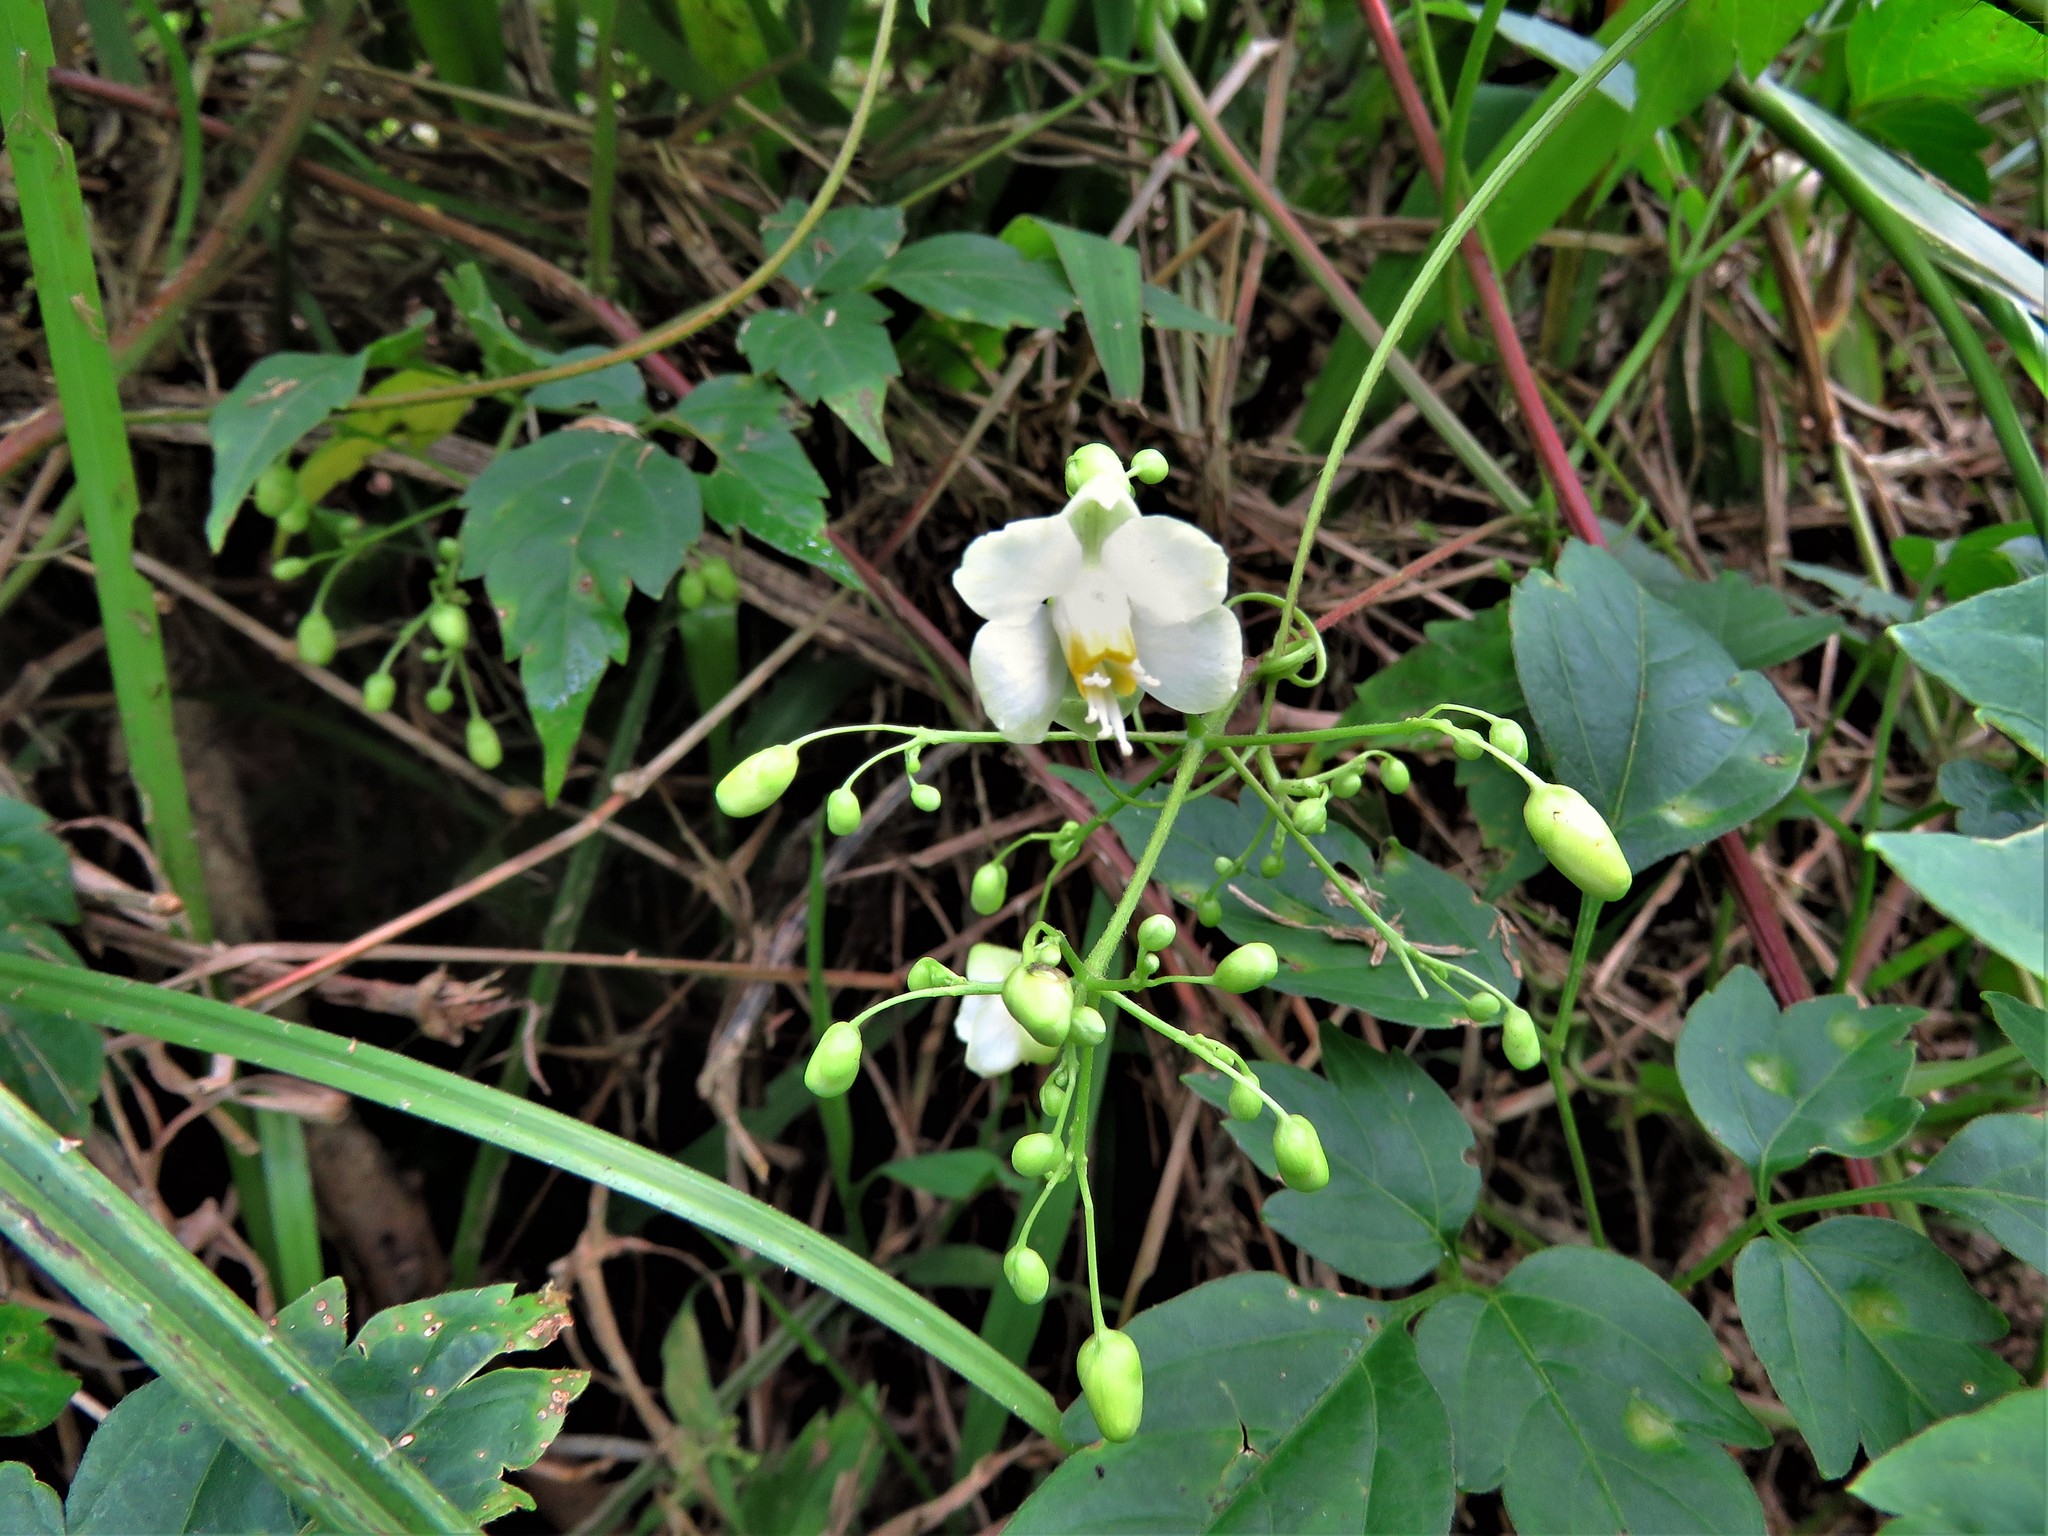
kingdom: Plantae
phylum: Tracheophyta
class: Magnoliopsida
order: Sapindales
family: Sapindaceae
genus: Cardiospermum
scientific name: Cardiospermum grandiflorum
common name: Balloon vine
